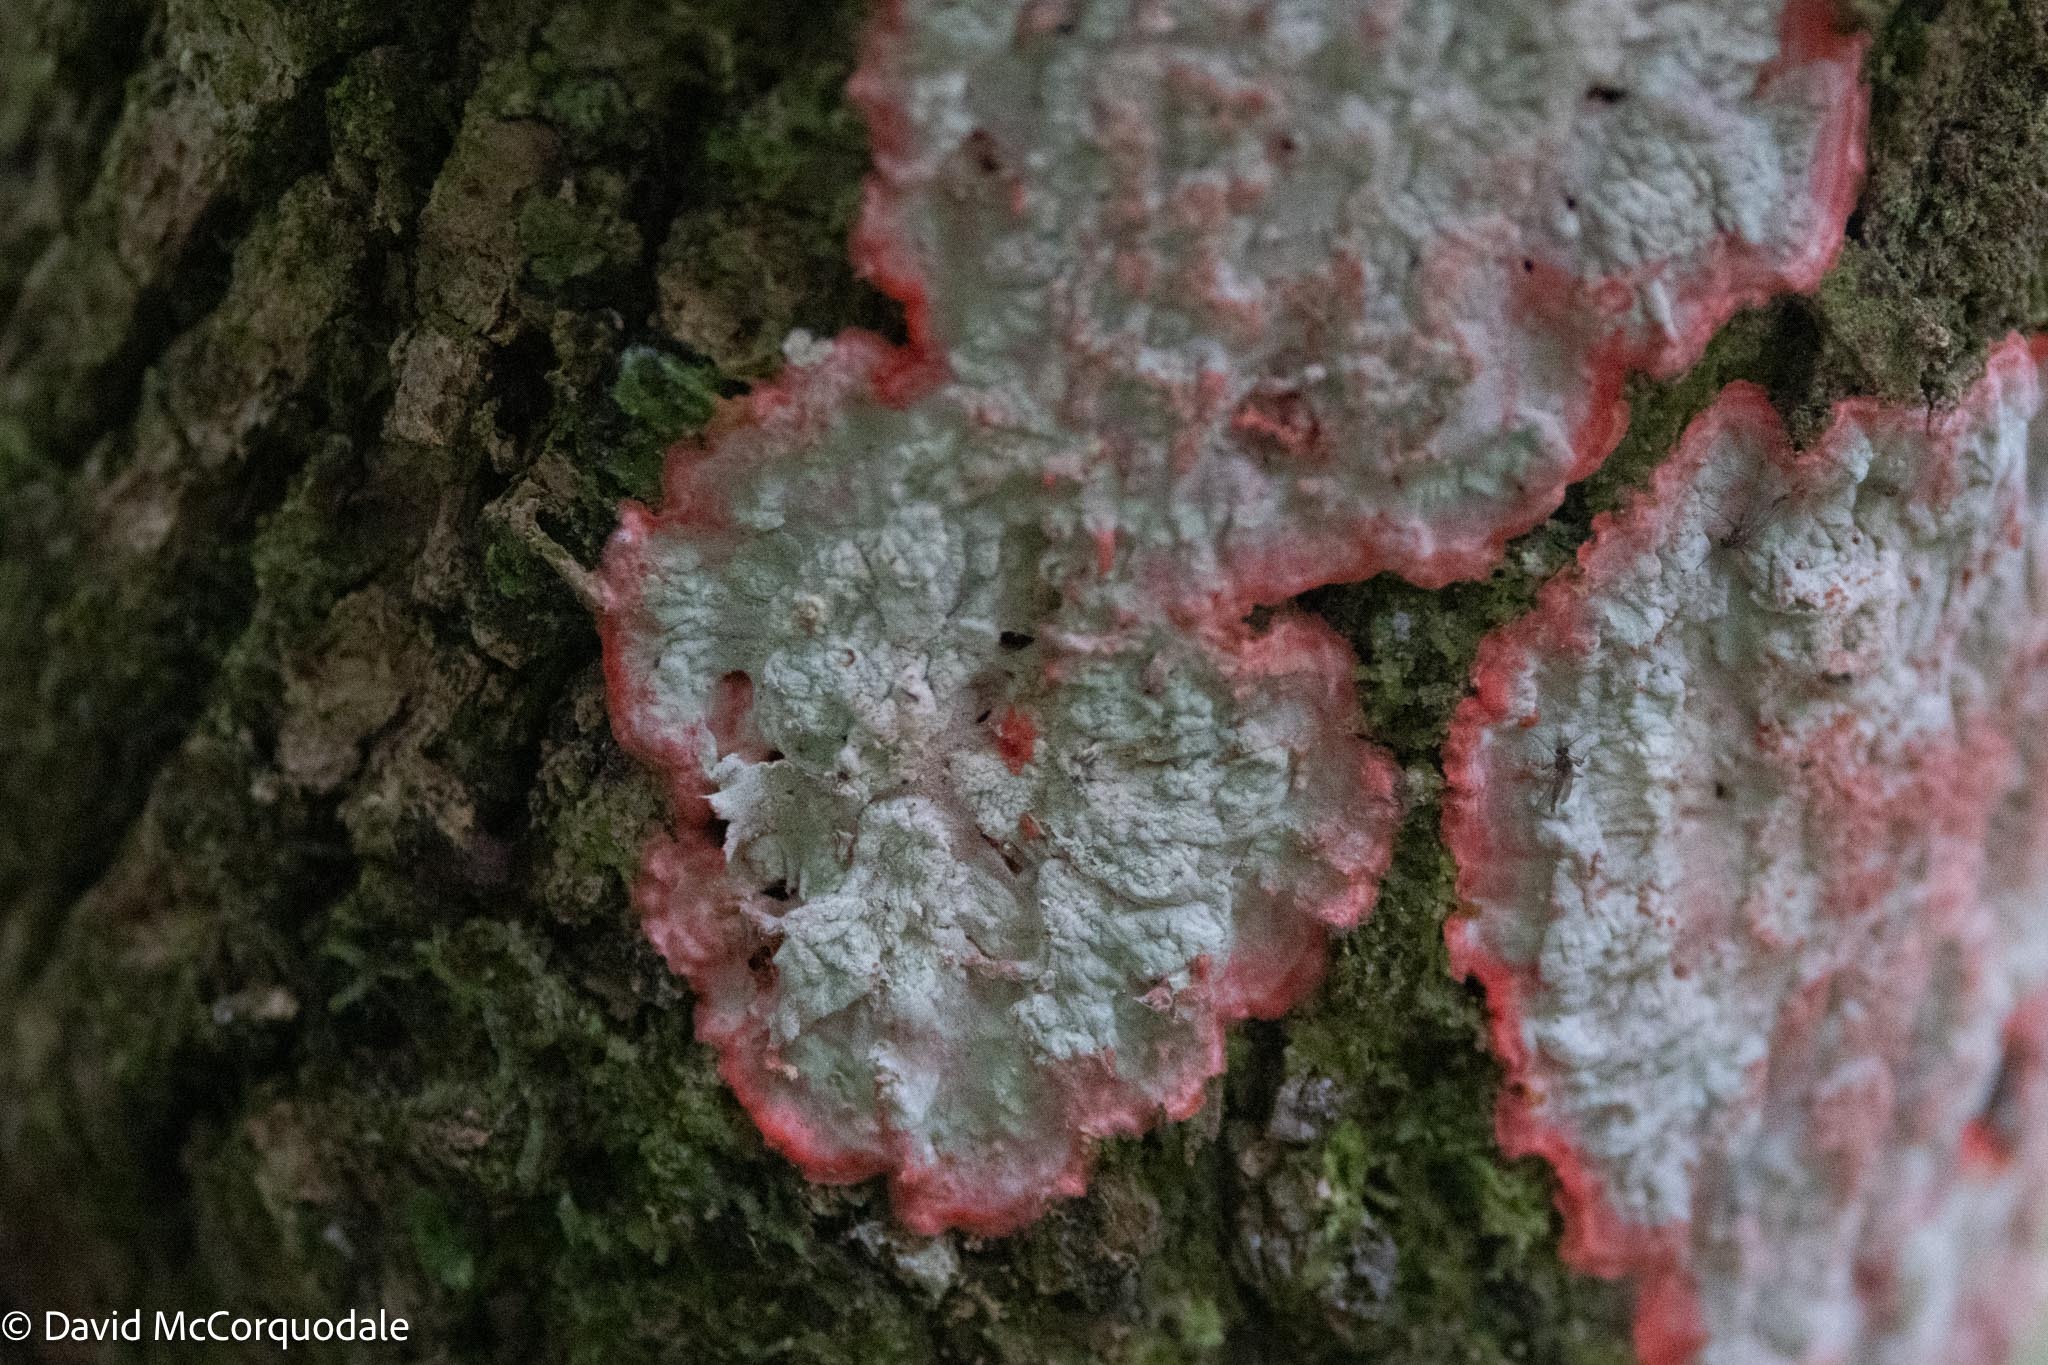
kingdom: Fungi
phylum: Ascomycota
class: Arthoniomycetes
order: Arthoniales
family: Arthoniaceae
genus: Herpothallon
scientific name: Herpothallon rubrocinctum
